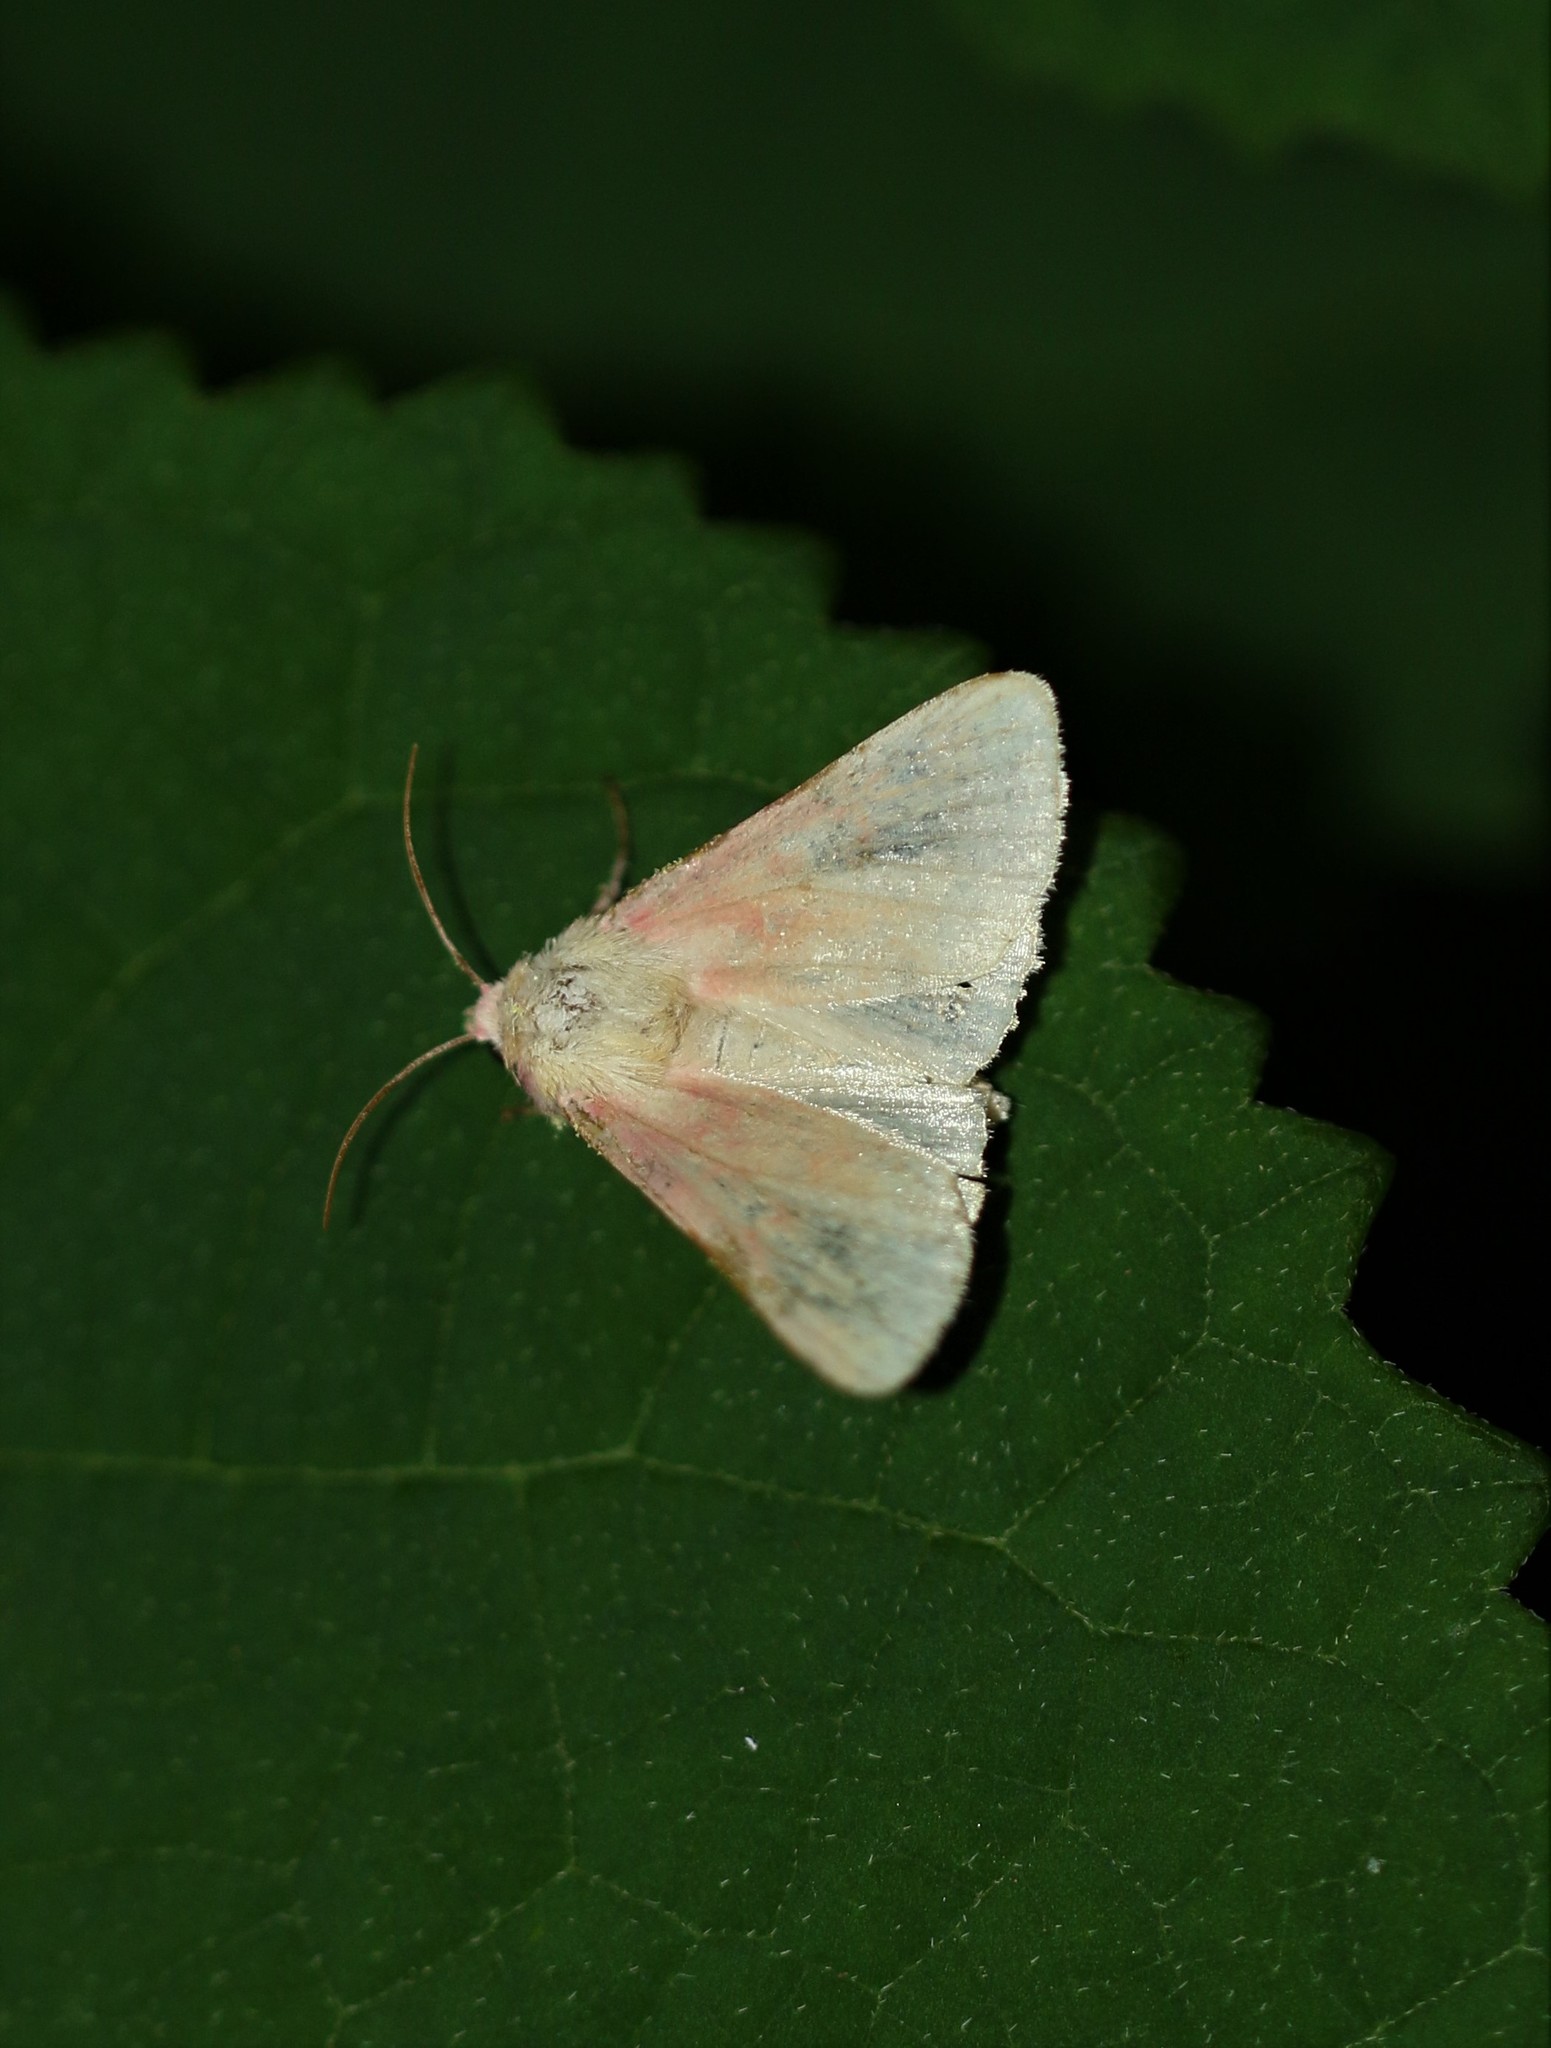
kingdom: Animalia
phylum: Arthropoda
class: Insecta
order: Lepidoptera
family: Noctuidae
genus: Schinia
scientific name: Schinia florida
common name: Primrose moth
